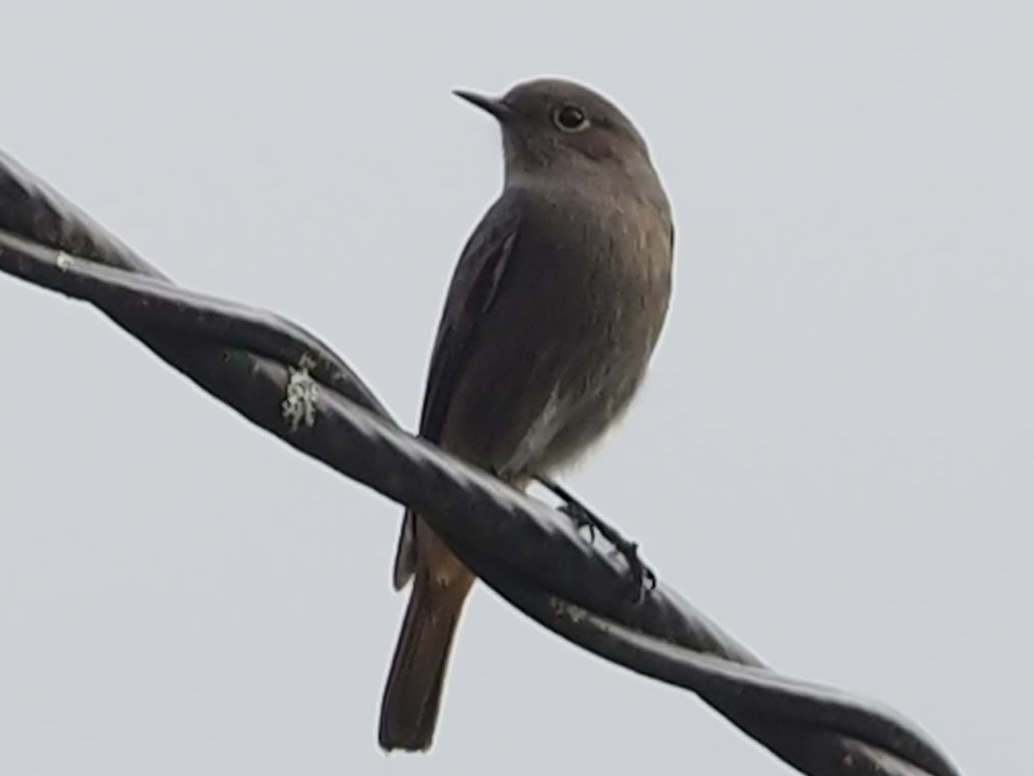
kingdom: Animalia
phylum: Chordata
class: Aves
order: Passeriformes
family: Muscicapidae
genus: Phoenicurus
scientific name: Phoenicurus ochruros
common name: Black redstart
